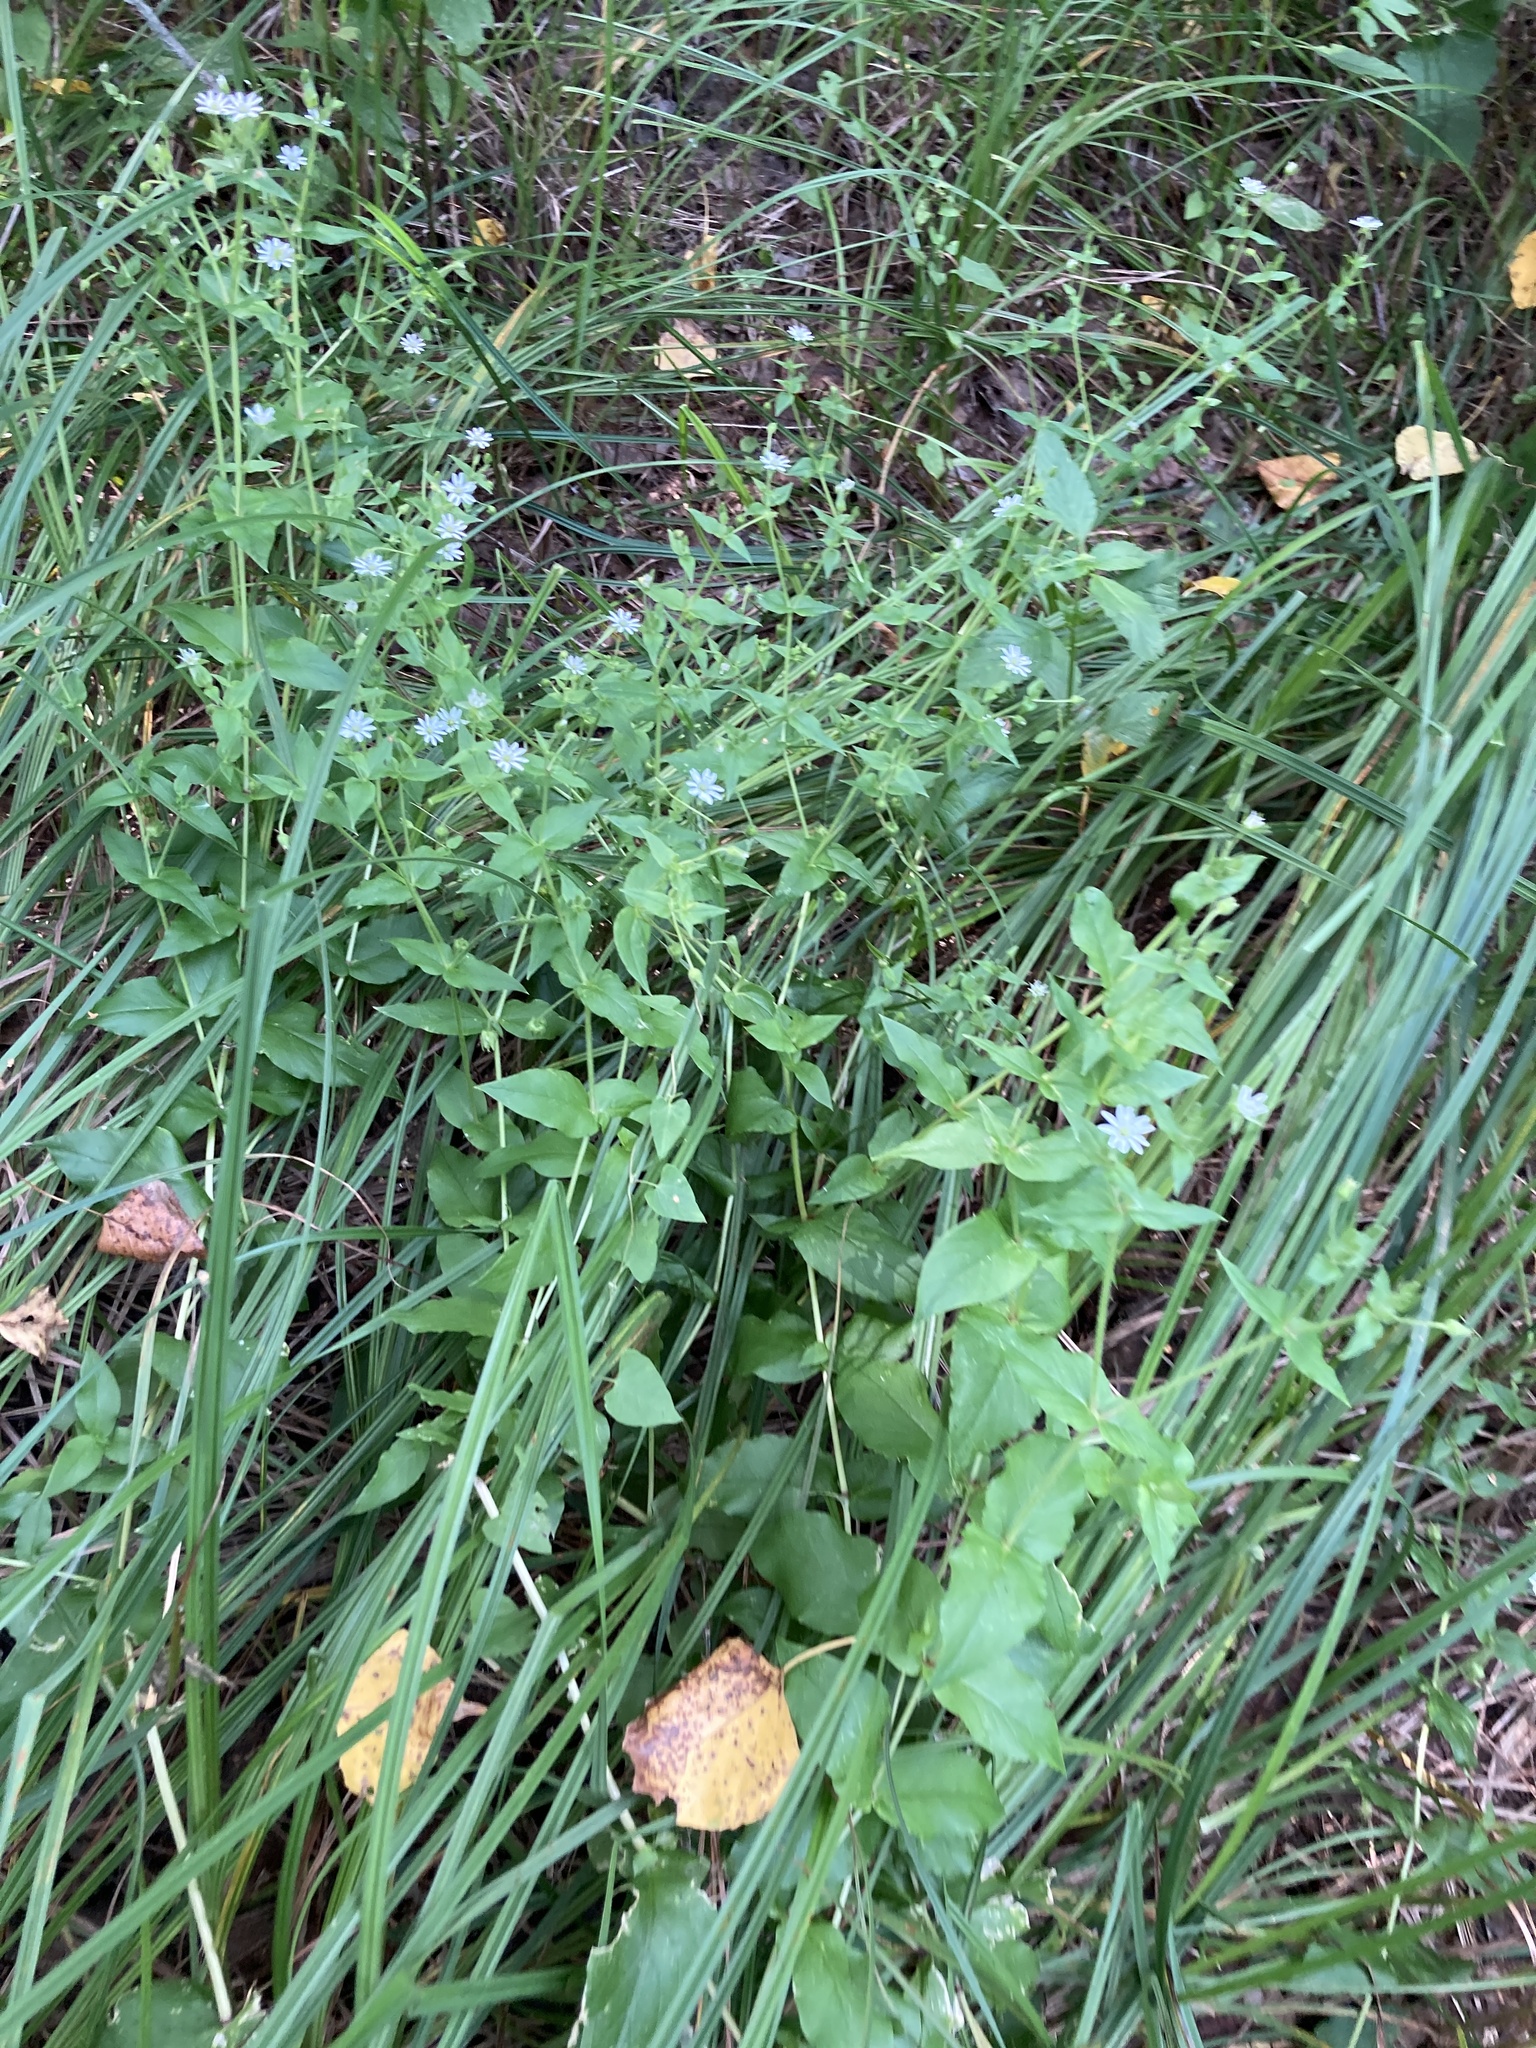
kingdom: Plantae
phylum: Tracheophyta
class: Magnoliopsida
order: Caryophyllales
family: Caryophyllaceae
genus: Stellaria
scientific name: Stellaria aquatica
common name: Water chickweed
